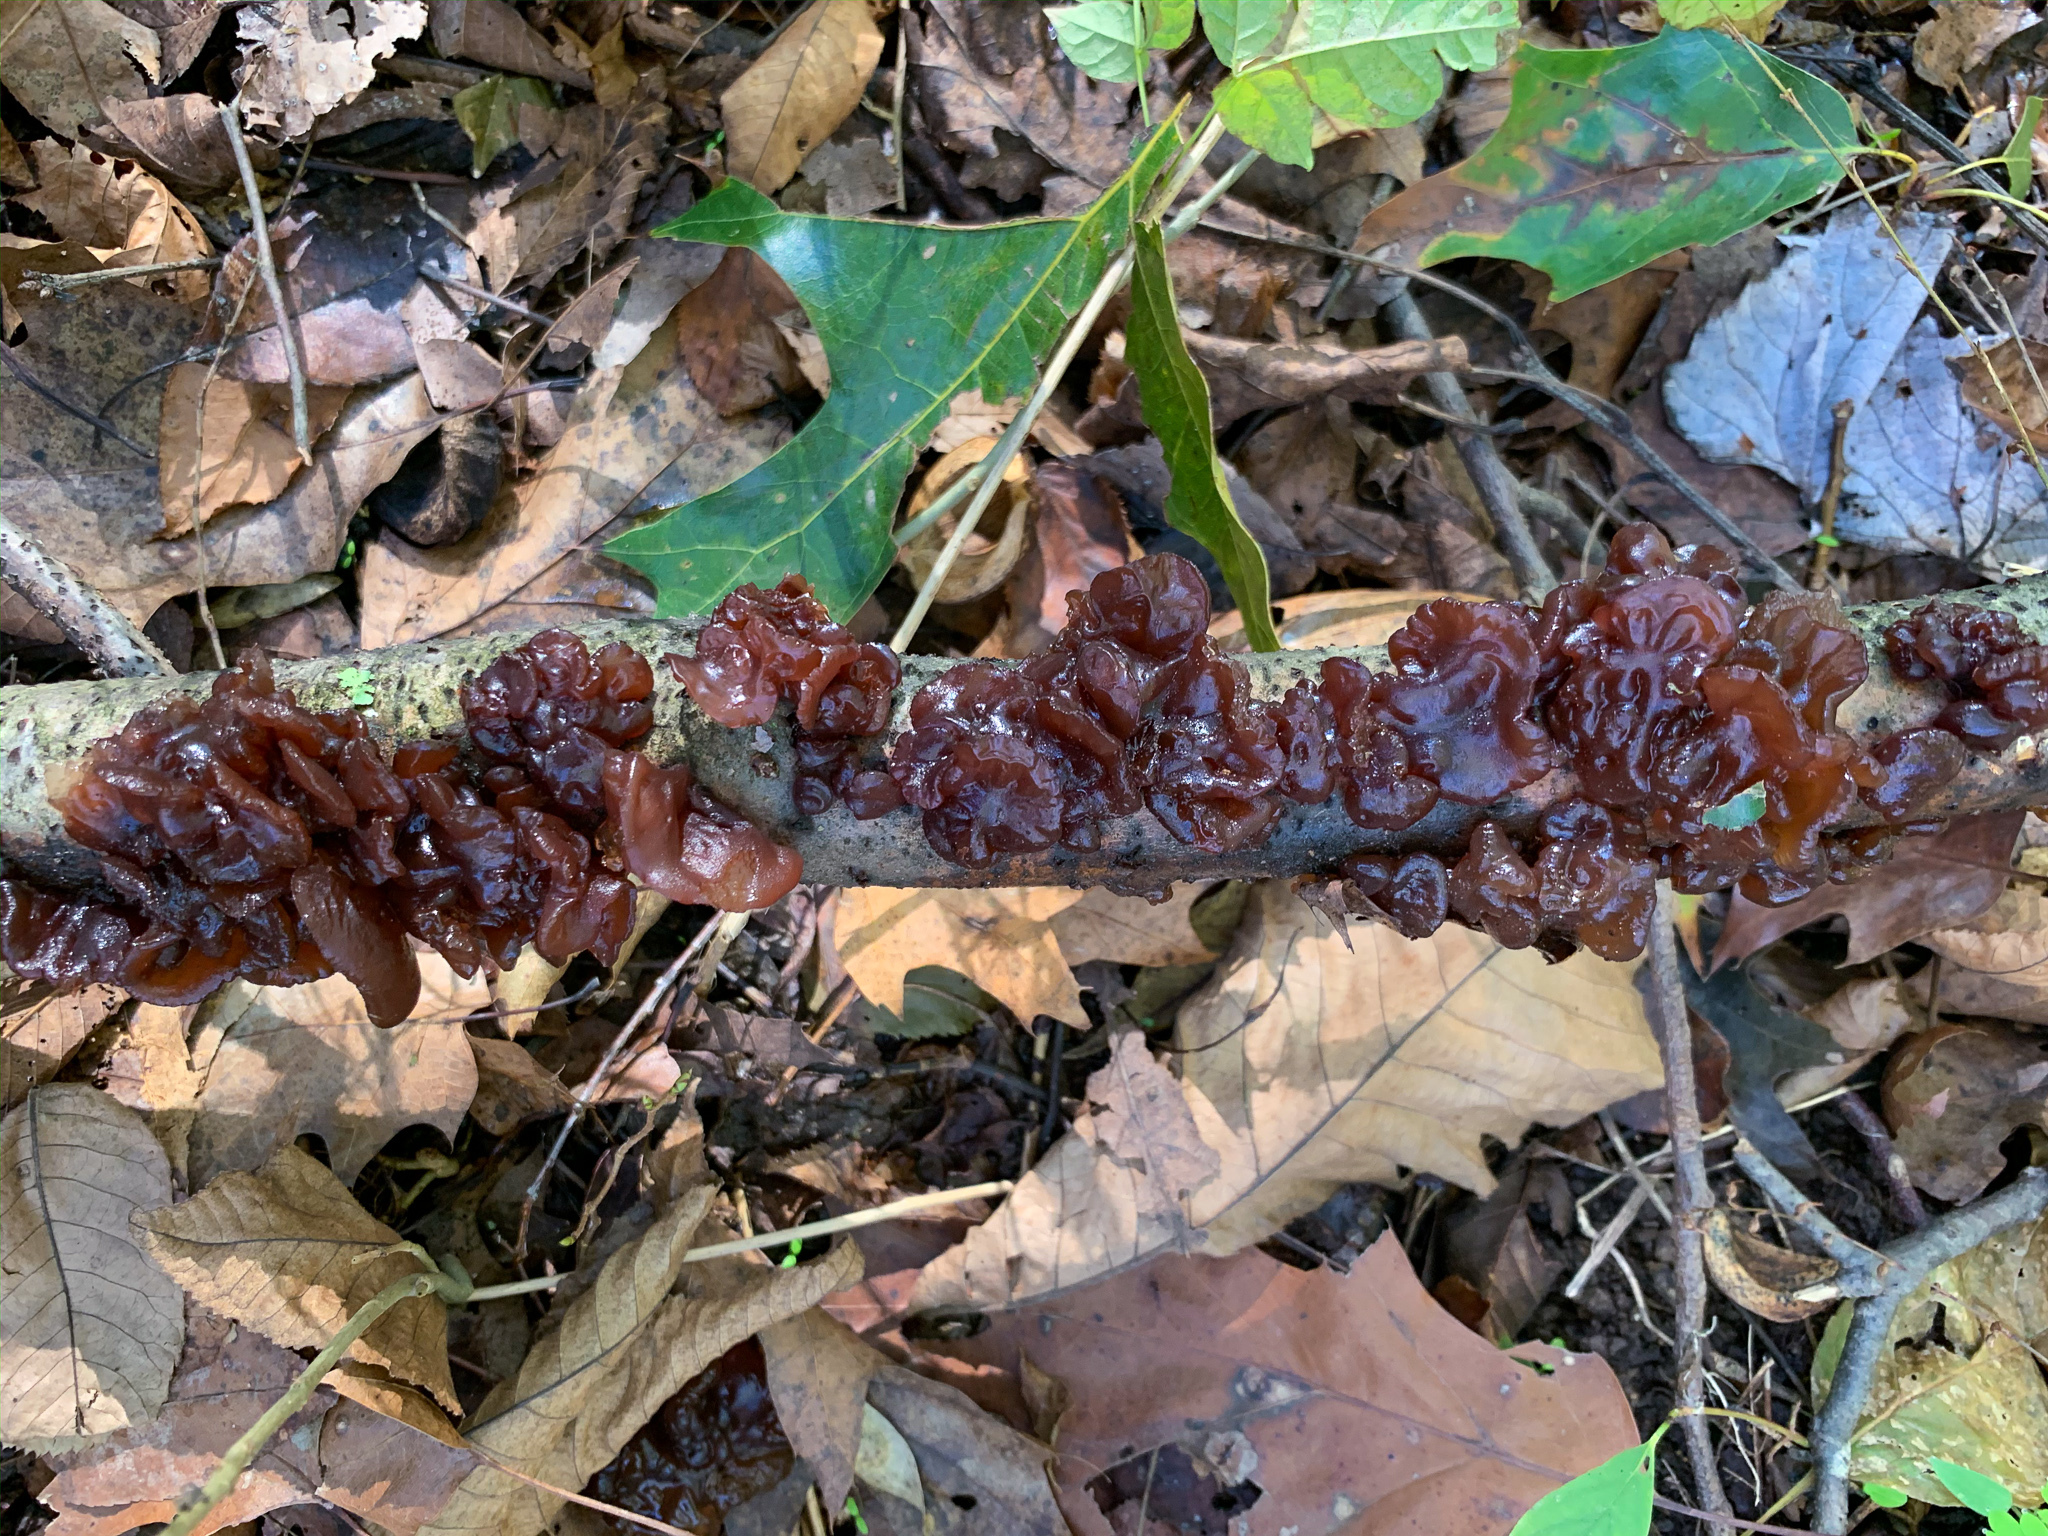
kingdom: Fungi
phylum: Basidiomycota
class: Agaricomycetes
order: Auriculariales
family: Auriculariaceae
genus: Exidia
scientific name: Exidia
